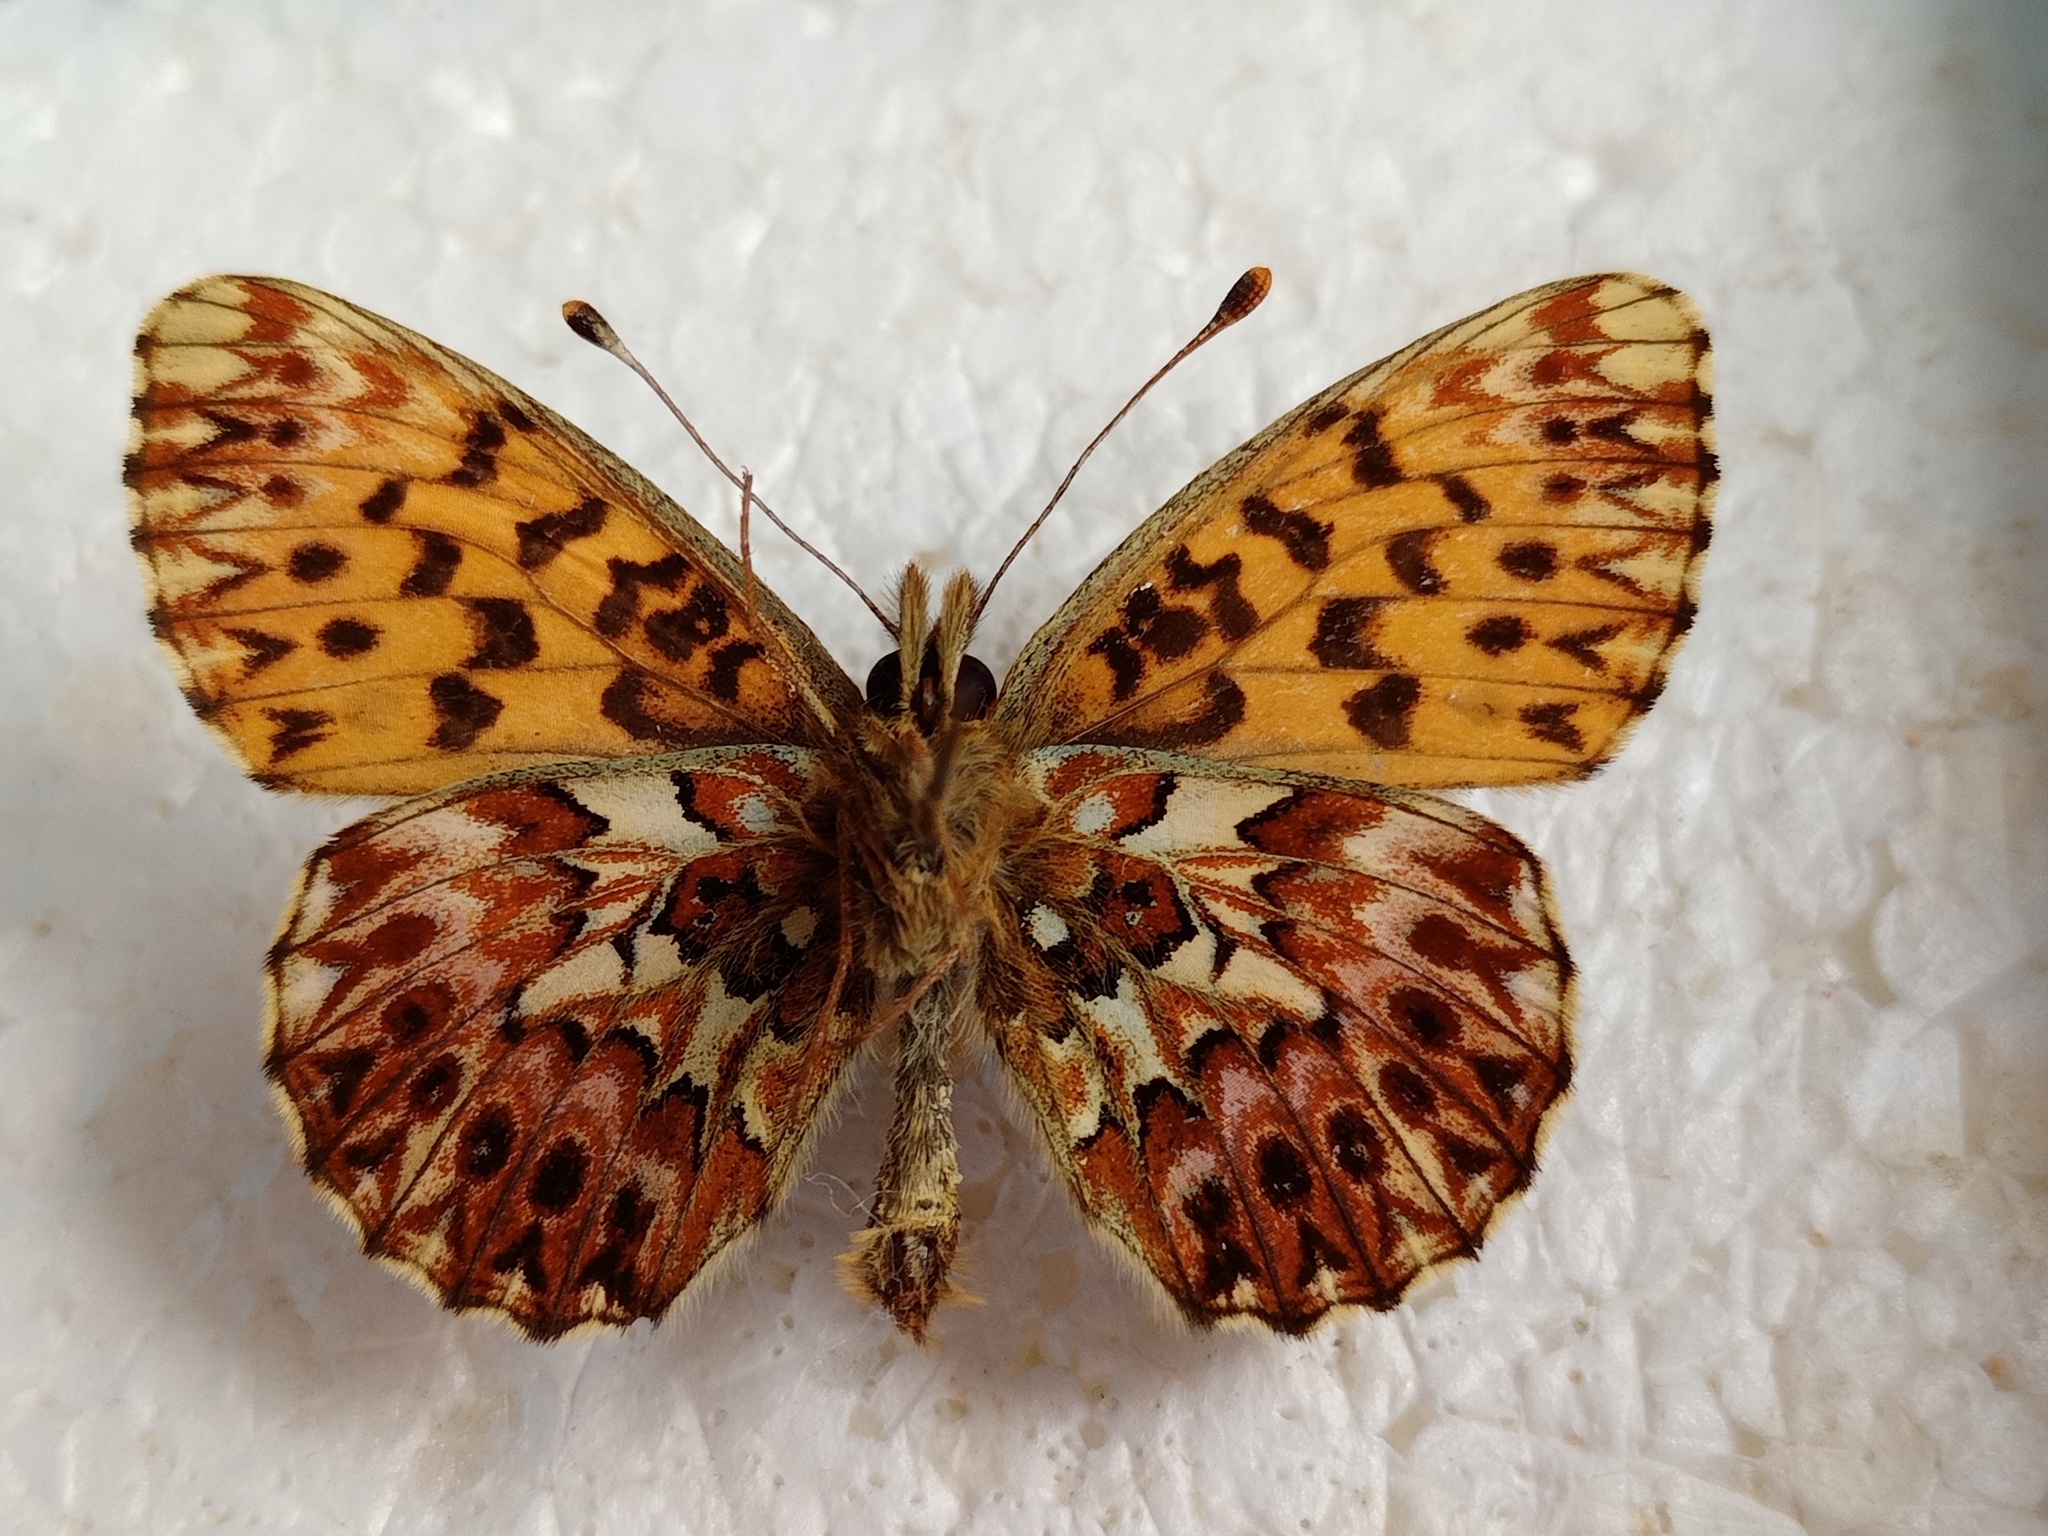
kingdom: Animalia
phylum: Arthropoda
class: Insecta
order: Lepidoptera
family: Nymphalidae
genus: Boloria
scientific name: Boloria titania
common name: Titania's fritillary
